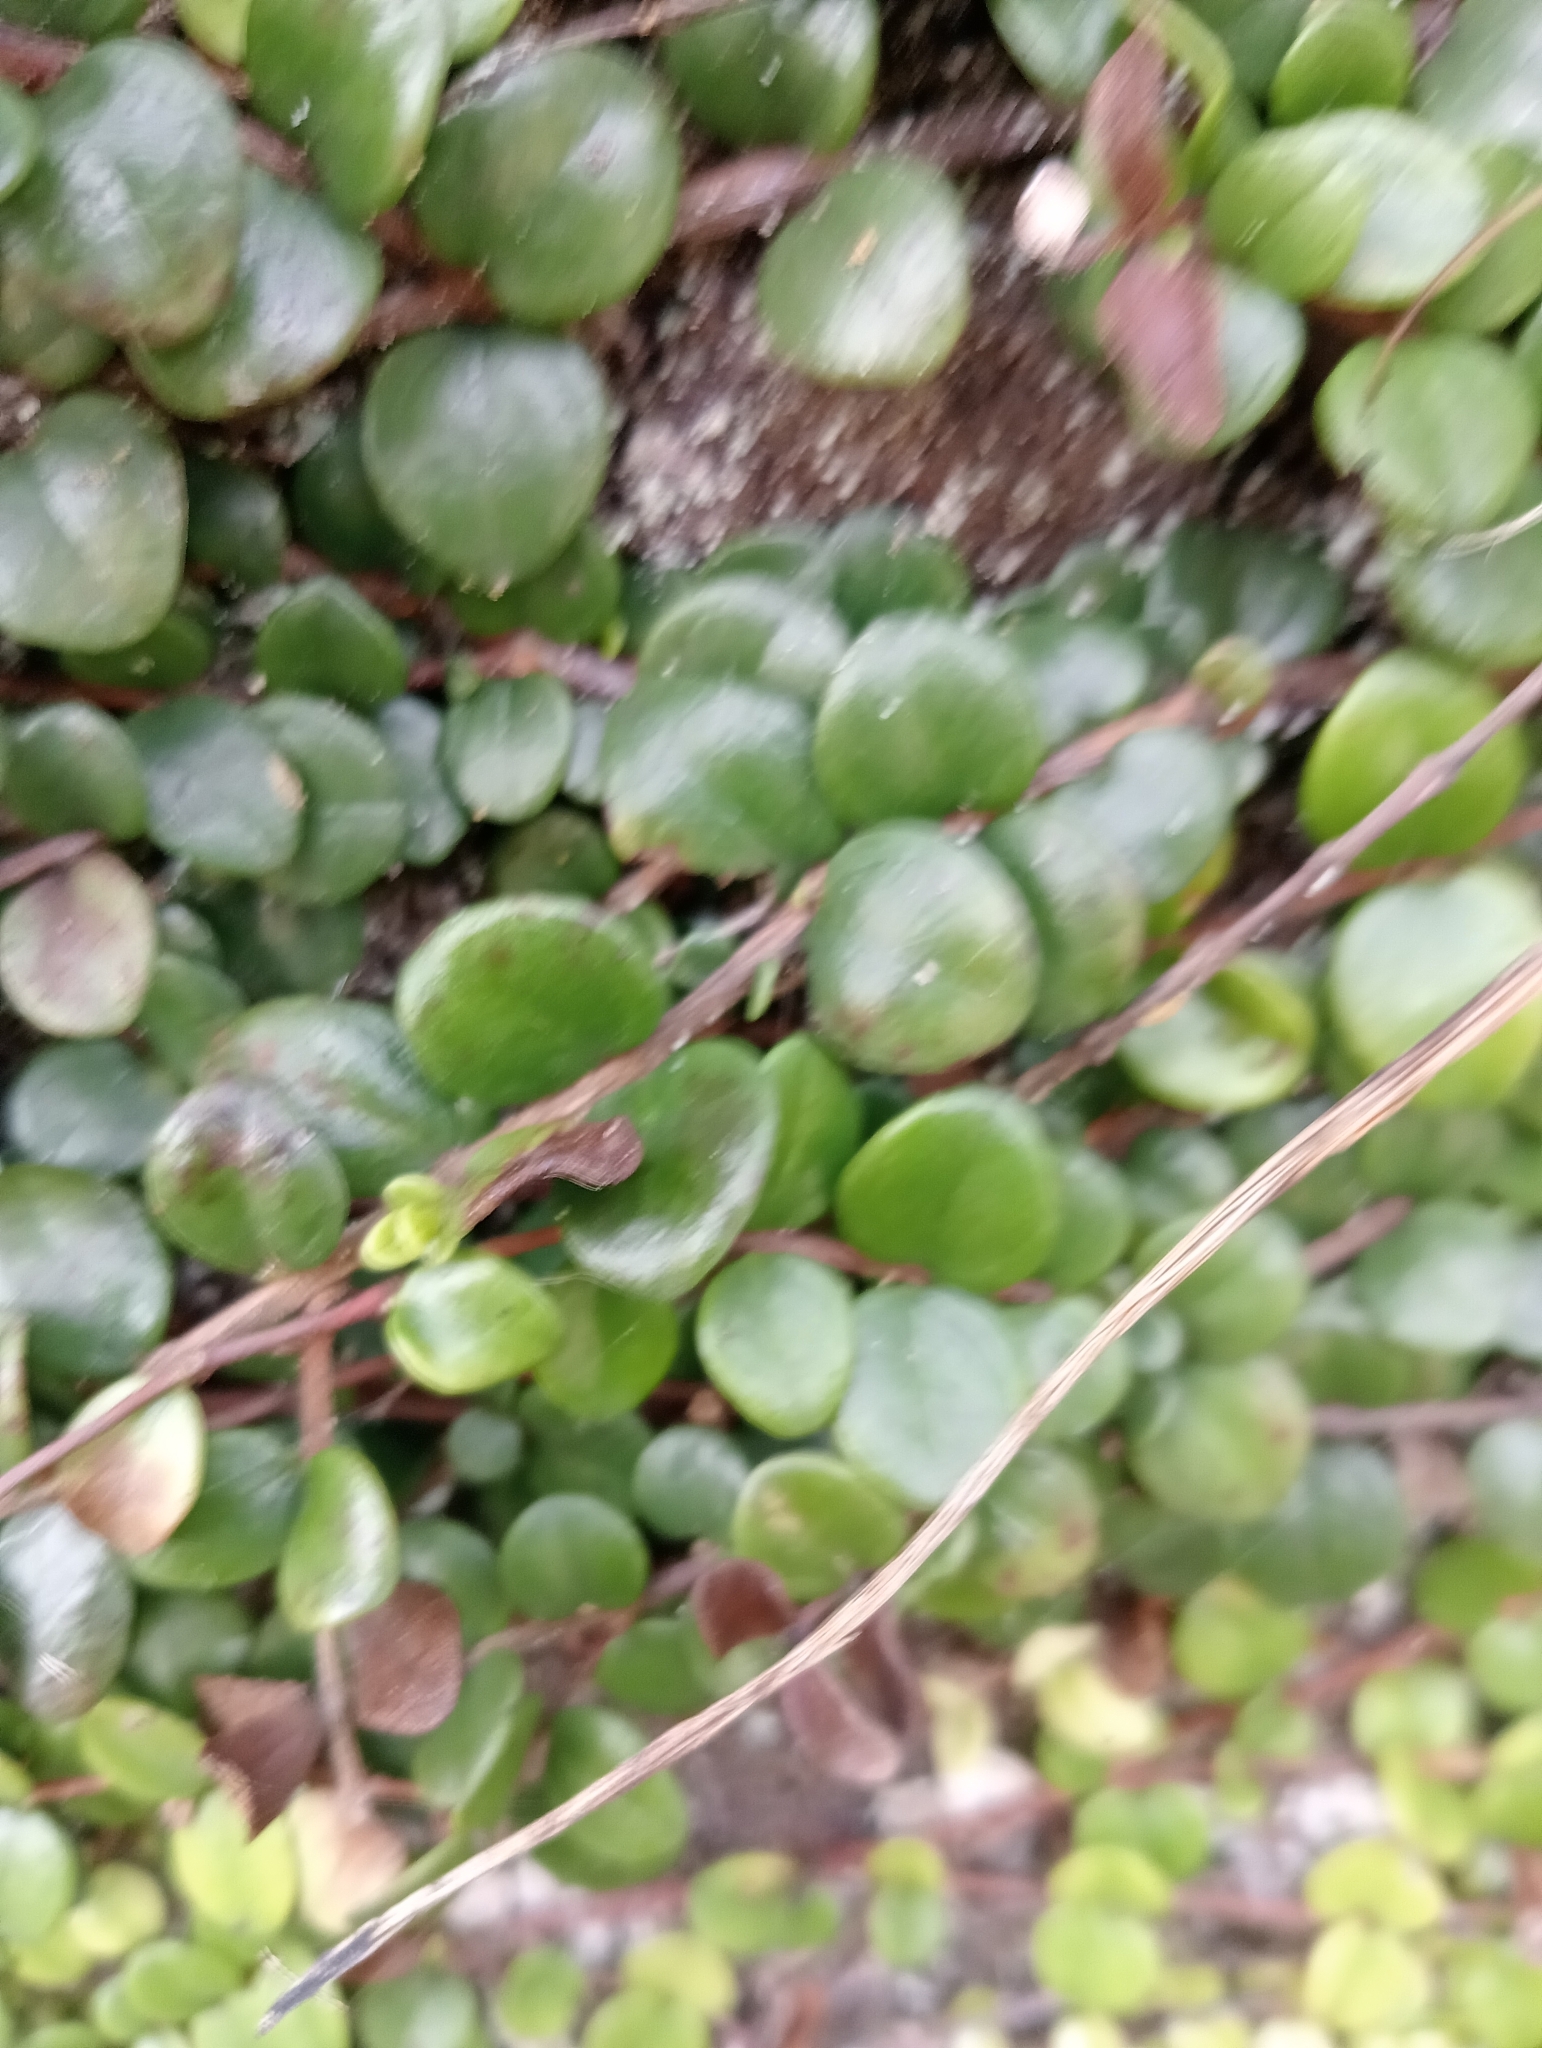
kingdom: Plantae
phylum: Tracheophyta
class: Magnoliopsida
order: Myrtales
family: Myrtaceae
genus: Metrosideros
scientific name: Metrosideros perforata
